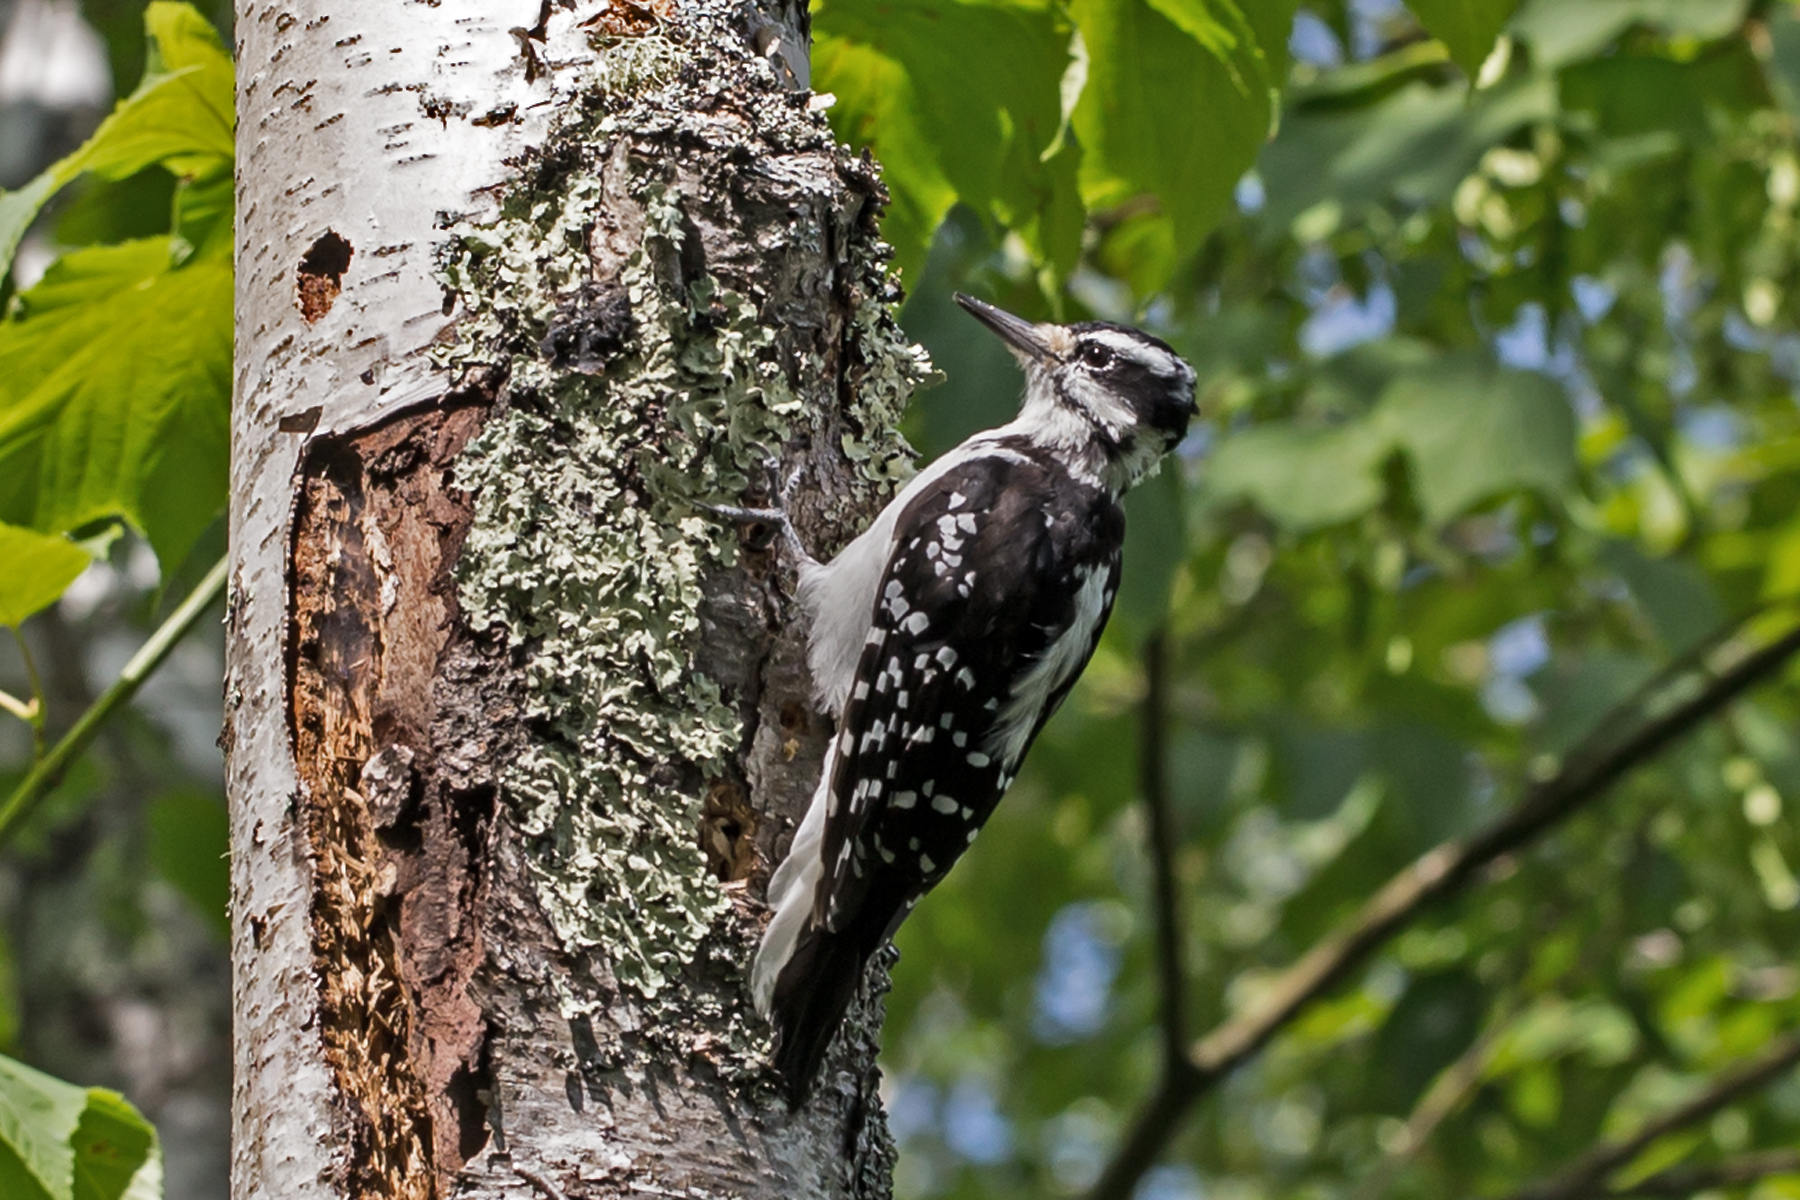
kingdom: Animalia
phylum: Chordata
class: Aves
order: Piciformes
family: Picidae
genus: Leuconotopicus
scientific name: Leuconotopicus villosus
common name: Hairy woodpecker
